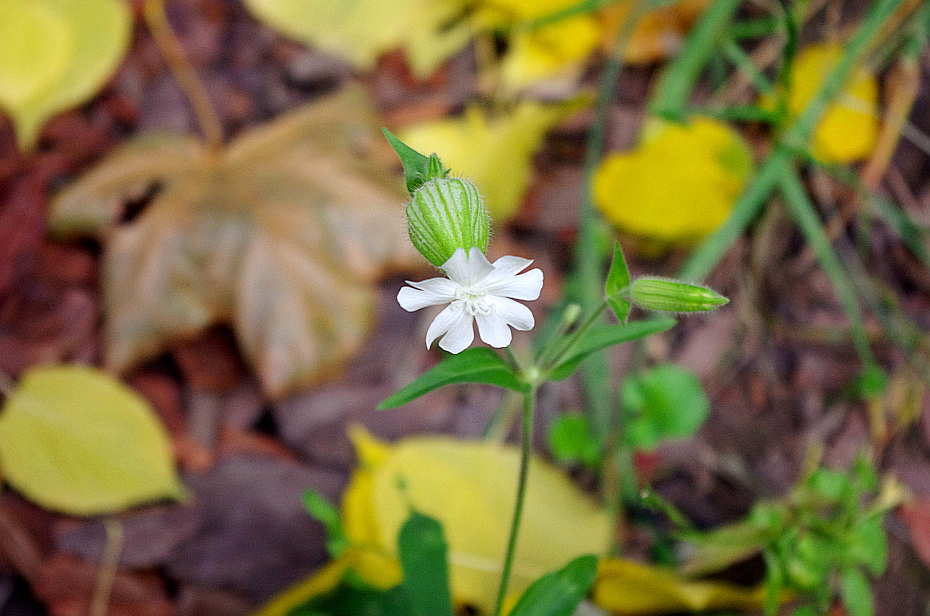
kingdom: Plantae
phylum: Tracheophyta
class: Magnoliopsida
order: Caryophyllales
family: Caryophyllaceae
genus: Silene
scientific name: Silene latifolia
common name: White campion
